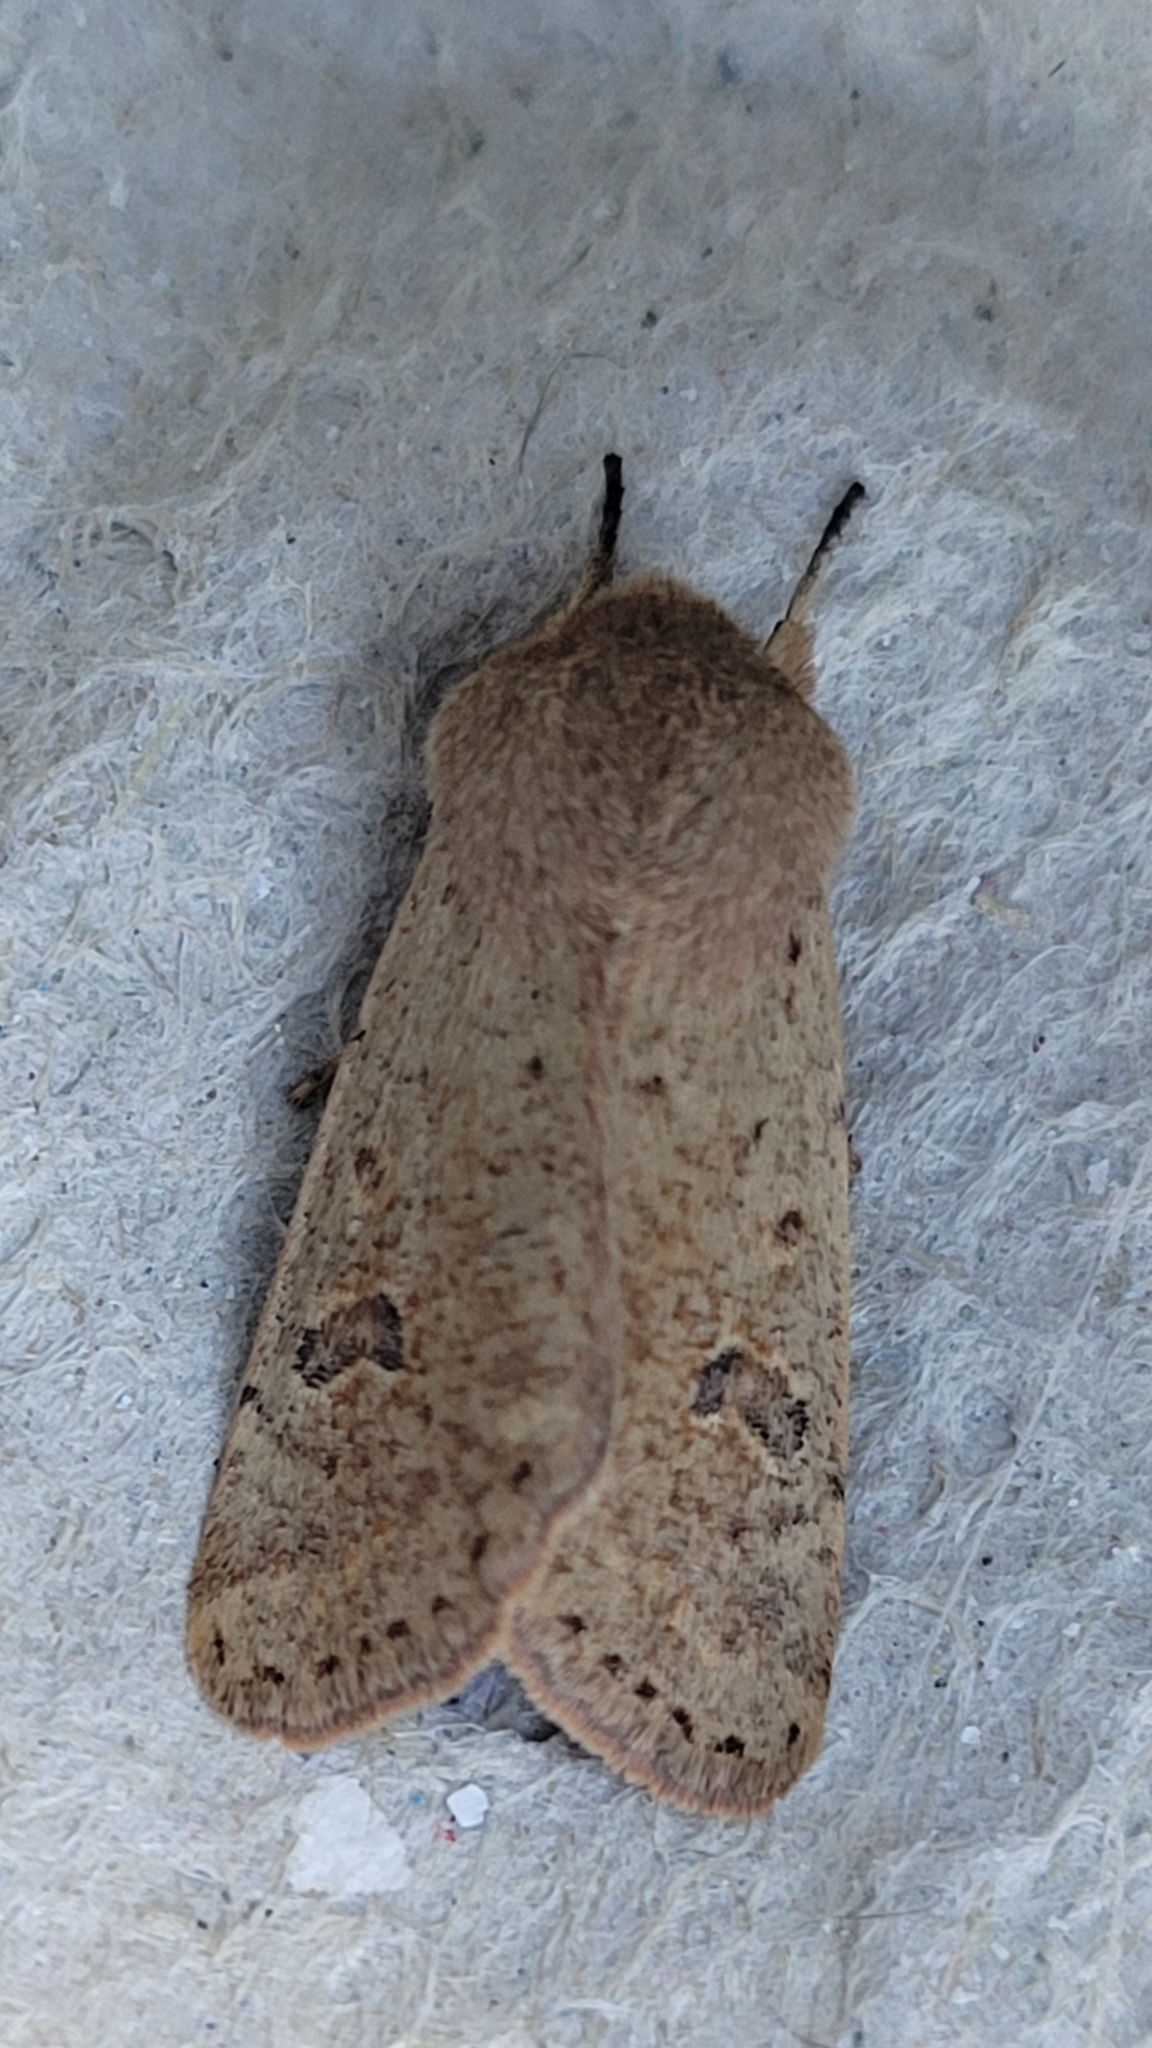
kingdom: Animalia
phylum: Arthropoda
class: Insecta
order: Lepidoptera
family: Noctuidae
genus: Orthosia
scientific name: Orthosia cruda
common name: Small quaker
